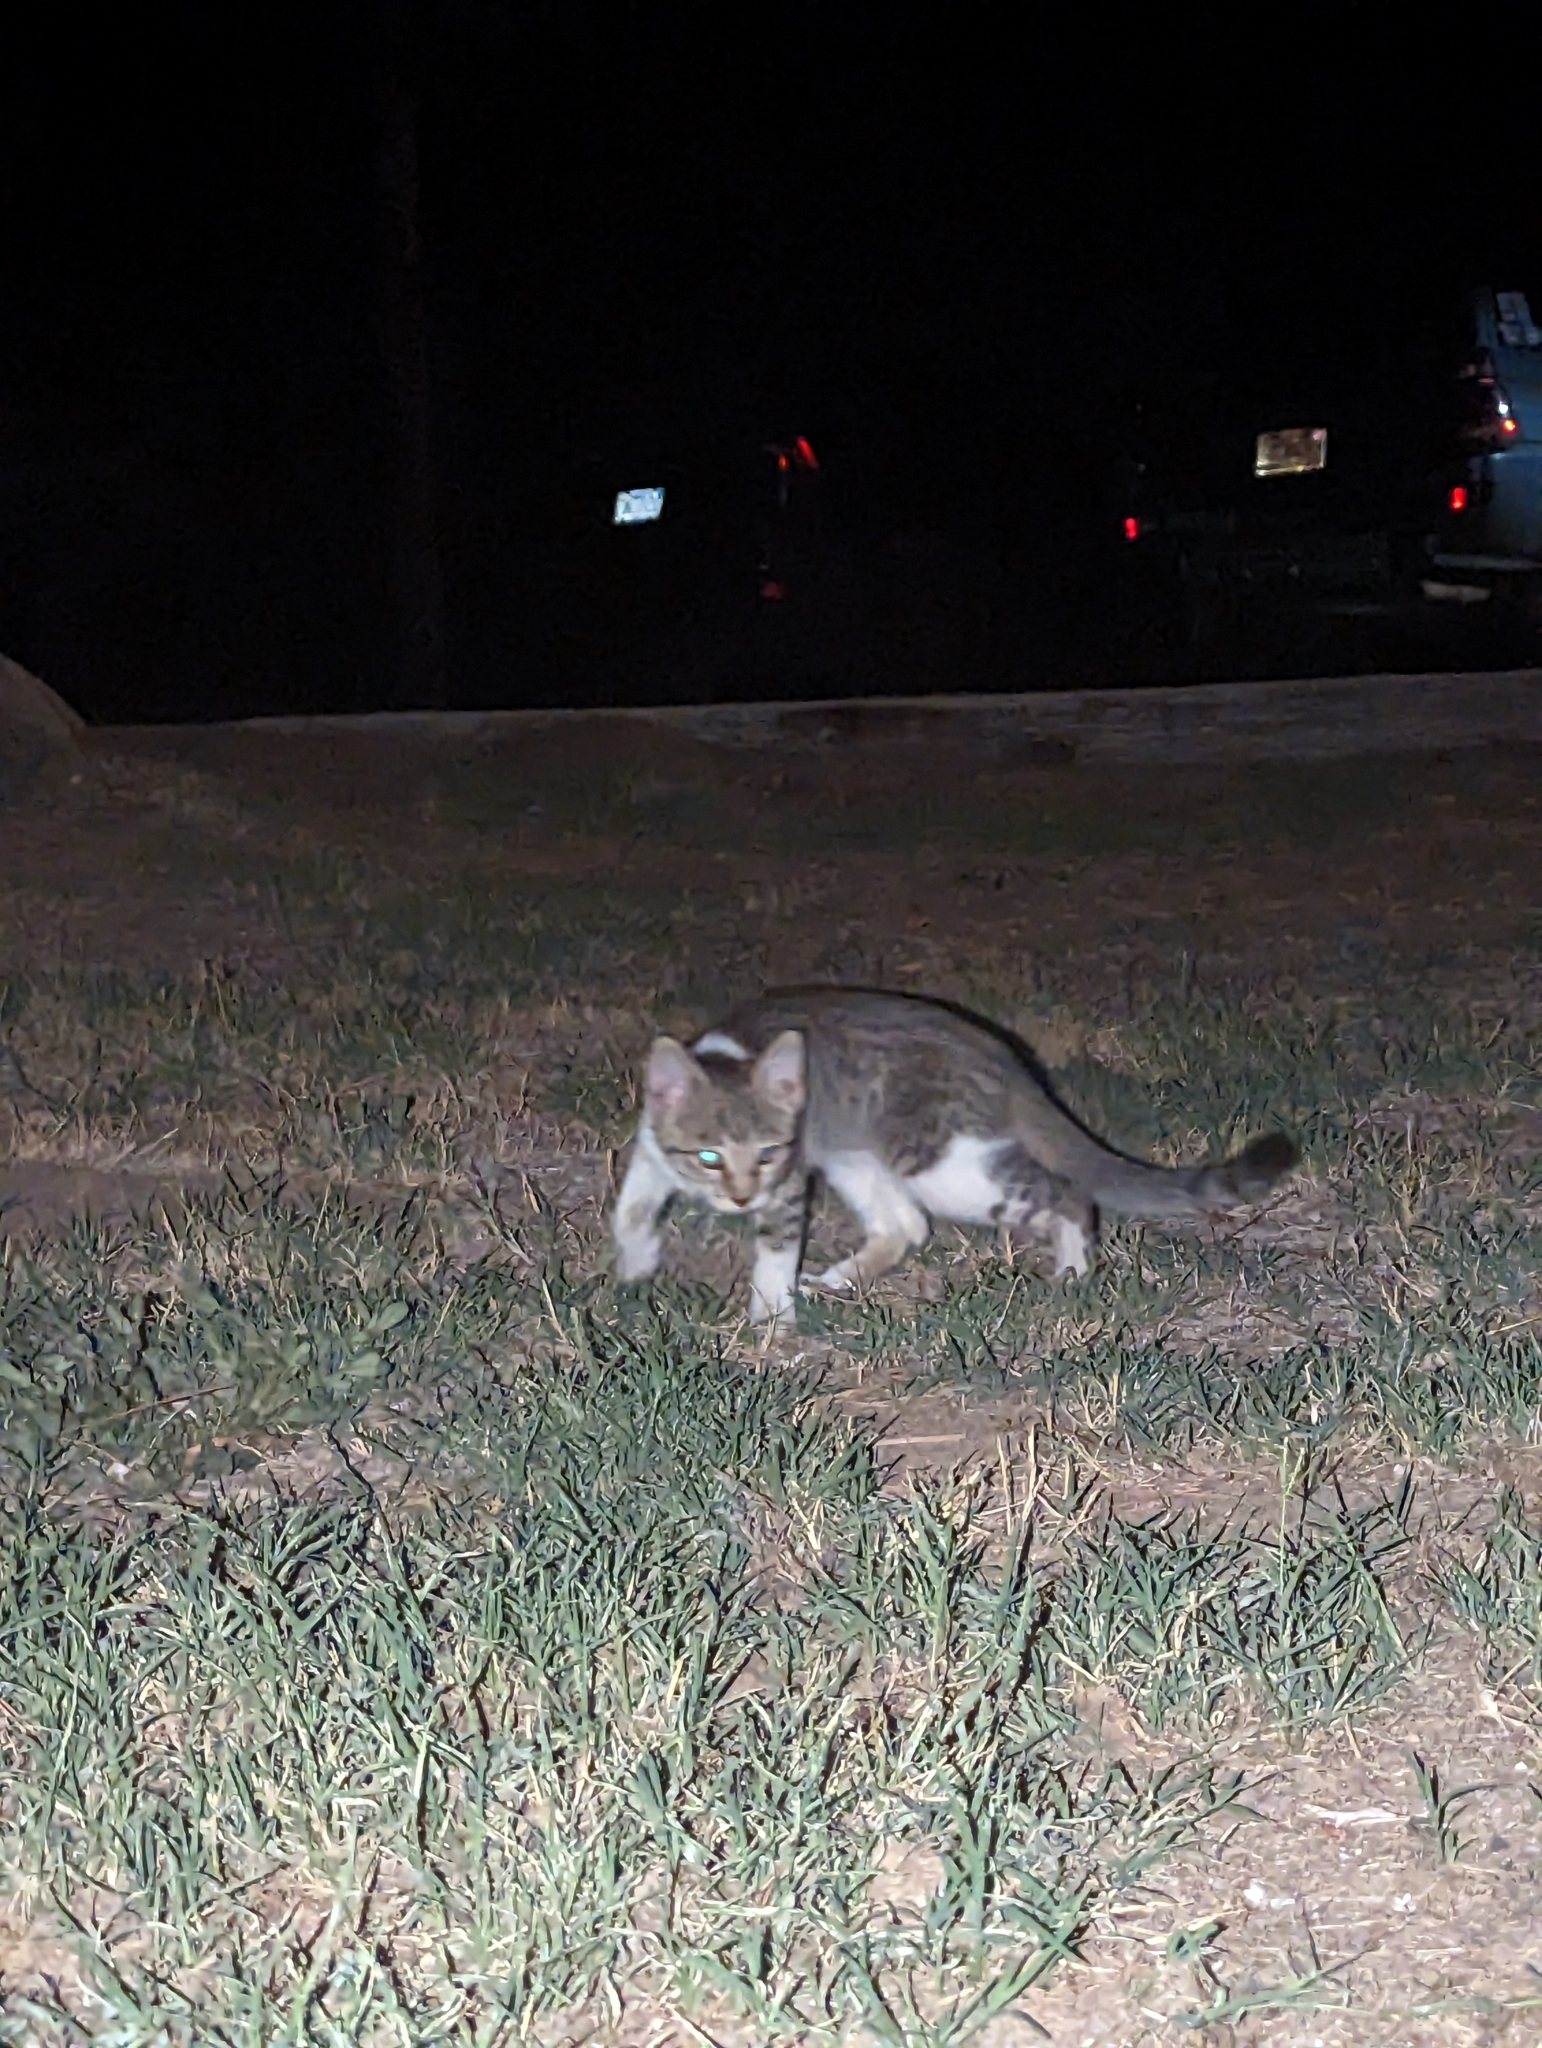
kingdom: Animalia
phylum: Chordata
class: Mammalia
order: Carnivora
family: Felidae
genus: Felis
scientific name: Felis catus
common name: Domestic cat
